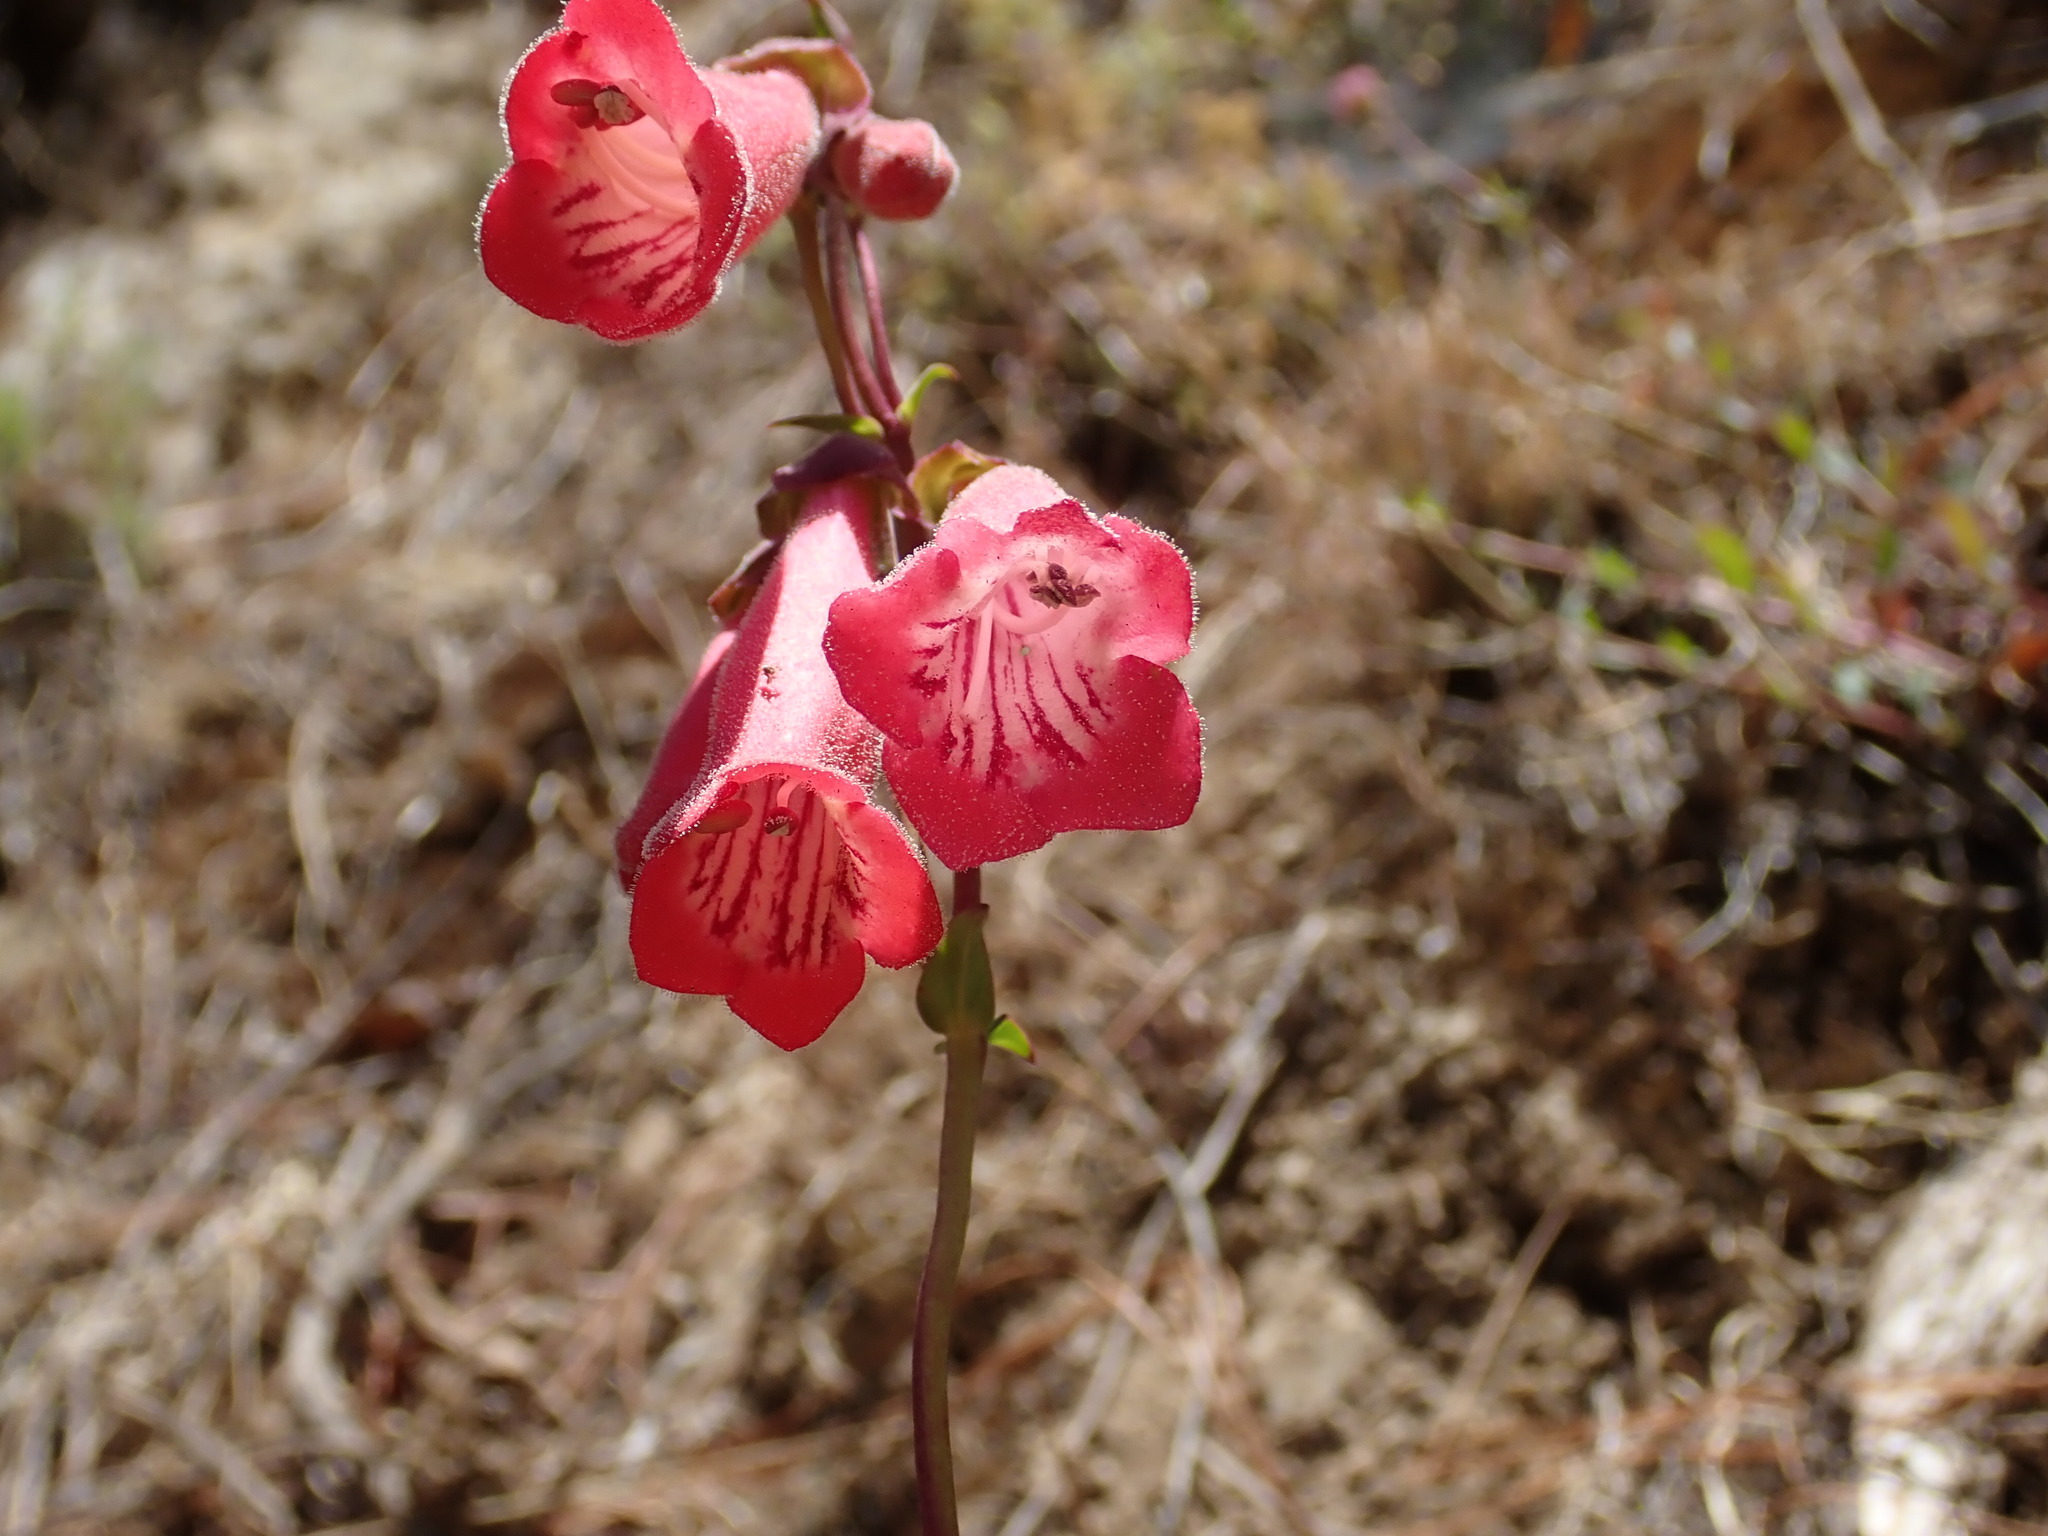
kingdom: Plantae
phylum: Tracheophyta
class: Magnoliopsida
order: Lamiales
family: Plantaginaceae
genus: Penstemon
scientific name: Penstemon roseus
